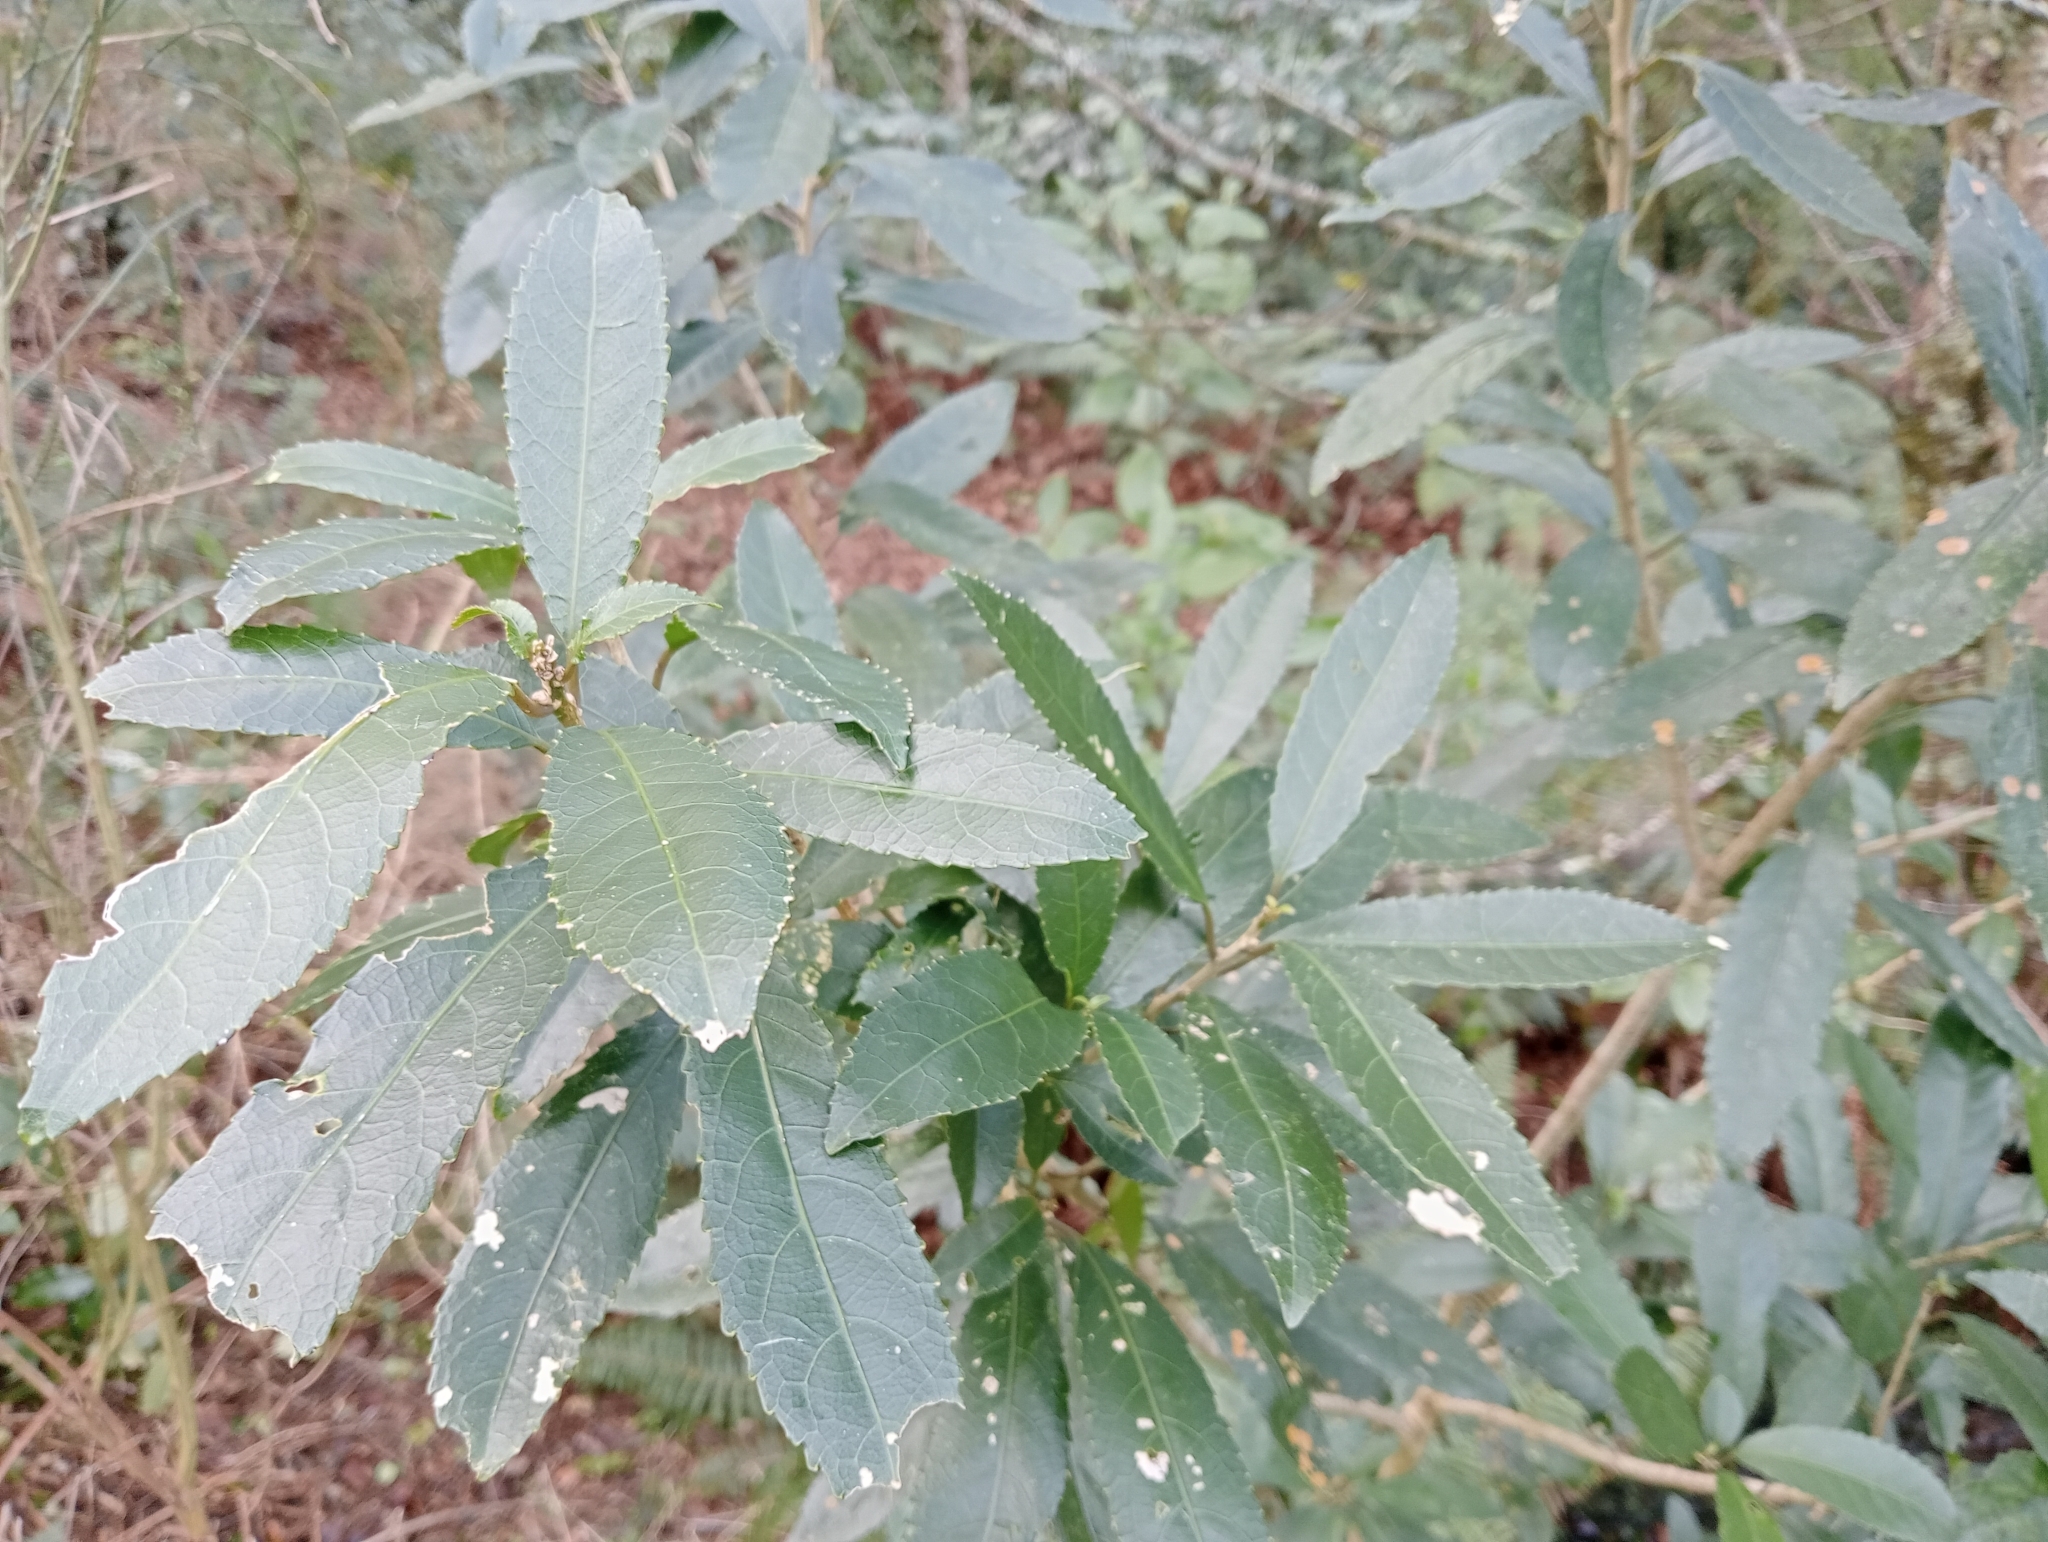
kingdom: Plantae
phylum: Tracheophyta
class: Magnoliopsida
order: Malpighiales
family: Violaceae
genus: Melicytus
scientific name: Melicytus ramiflorus
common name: Mahoe
